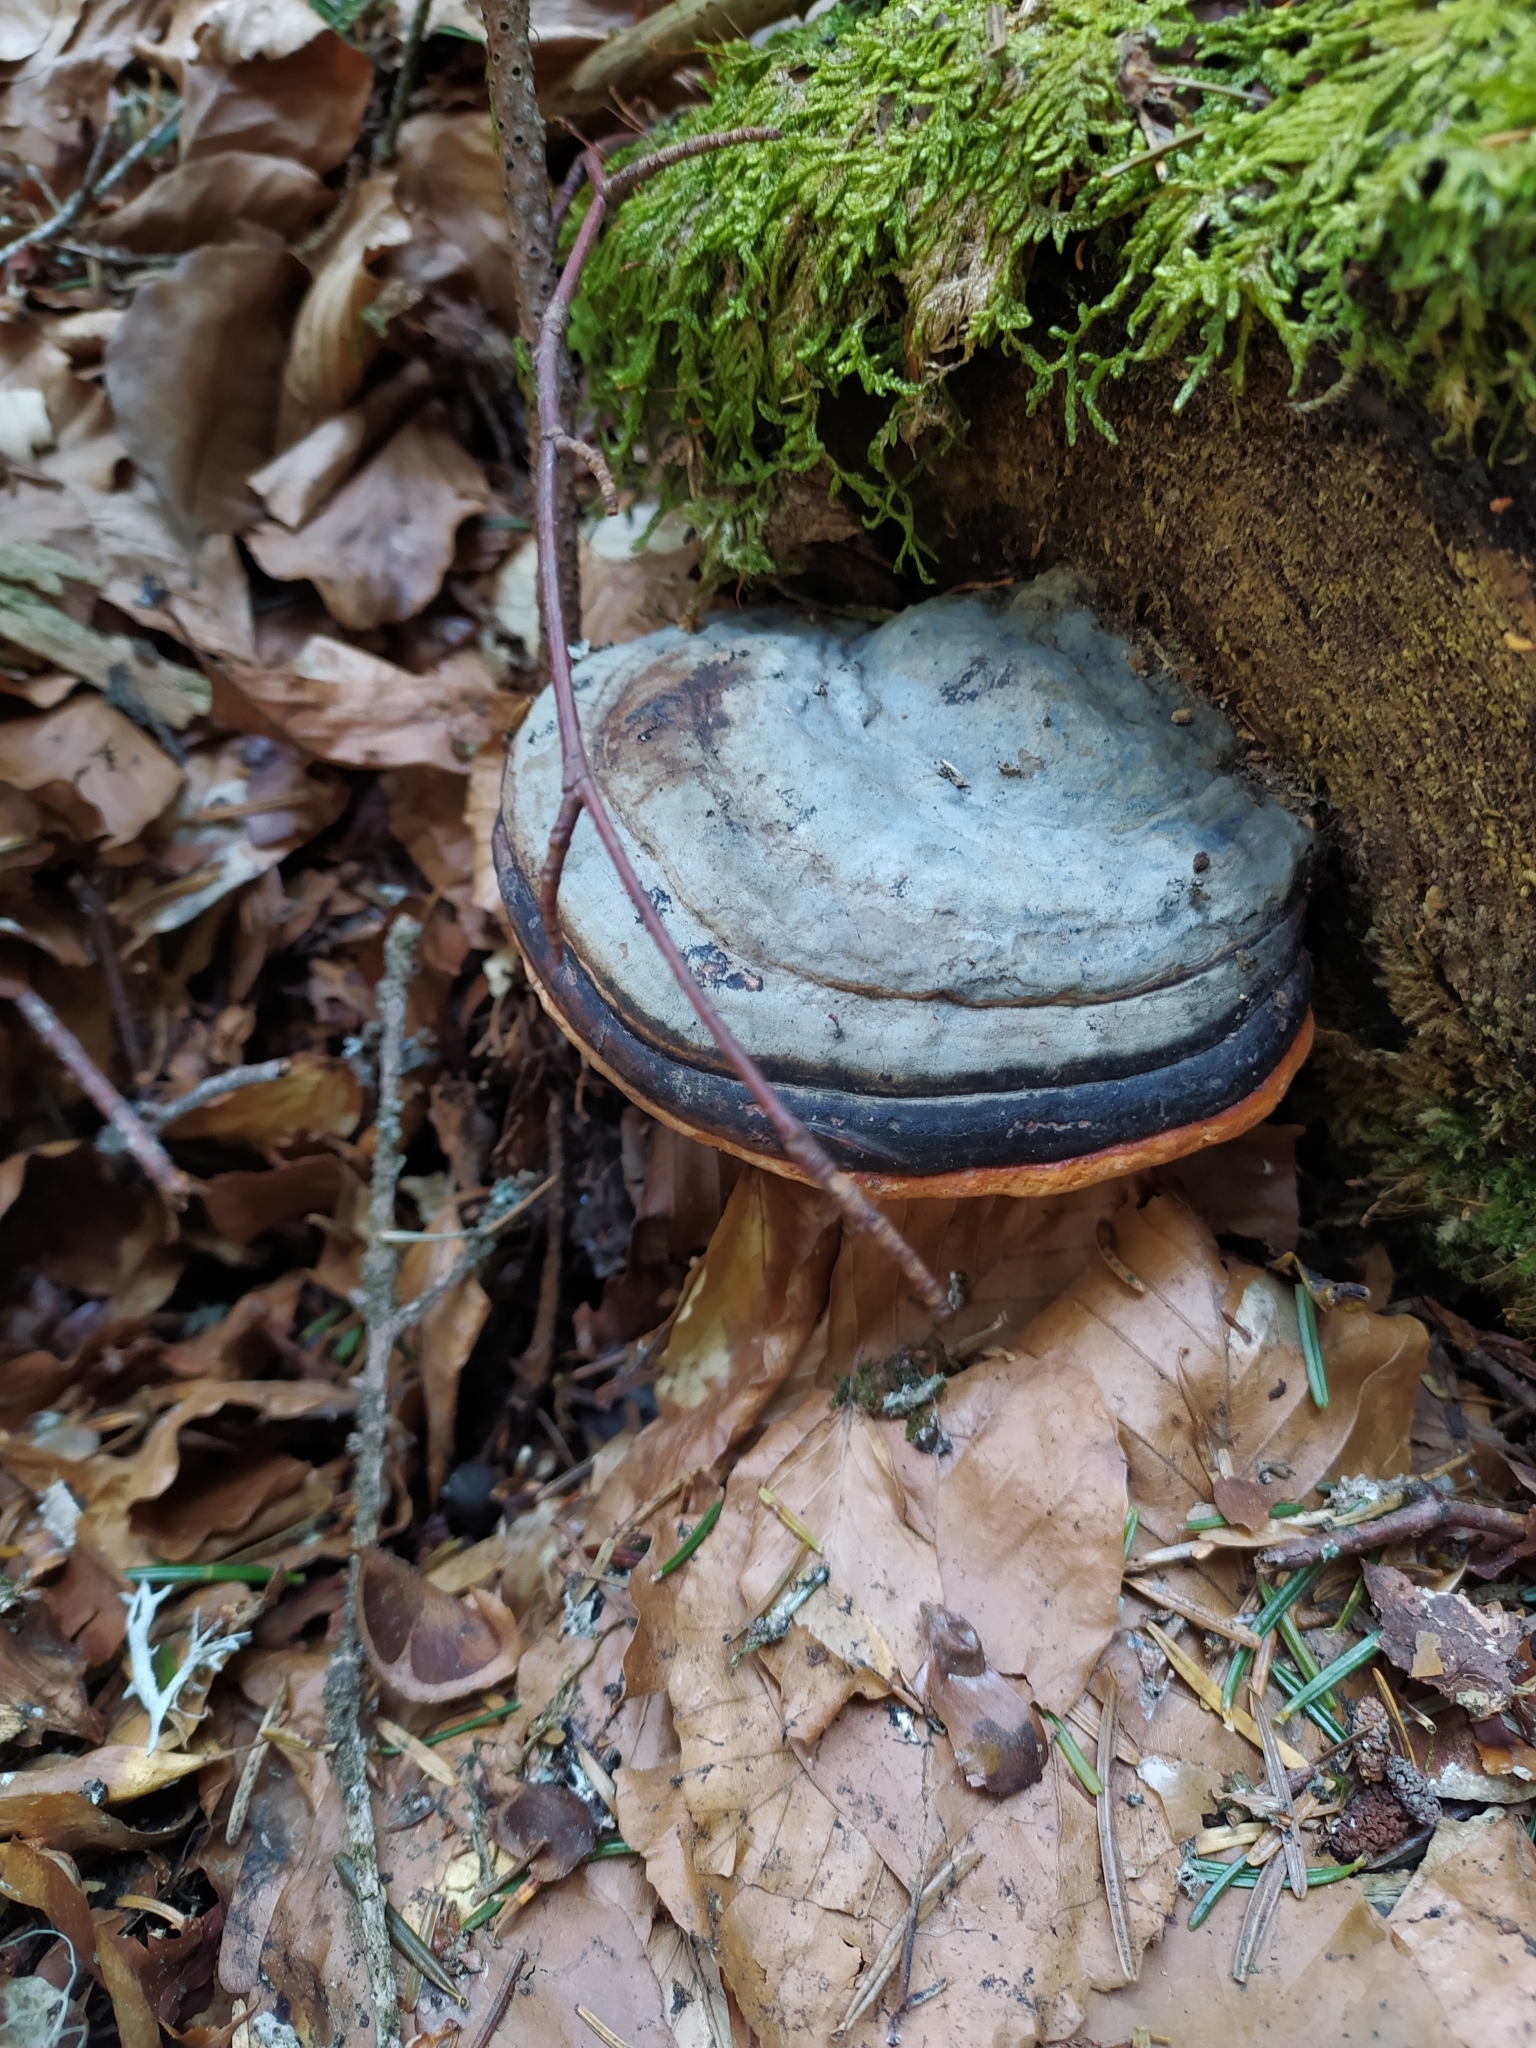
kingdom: Fungi
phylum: Basidiomycota
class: Agaricomycetes
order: Polyporales
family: Fomitopsidaceae
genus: Fomitopsis
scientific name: Fomitopsis pinicola
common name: Red-belted bracket
